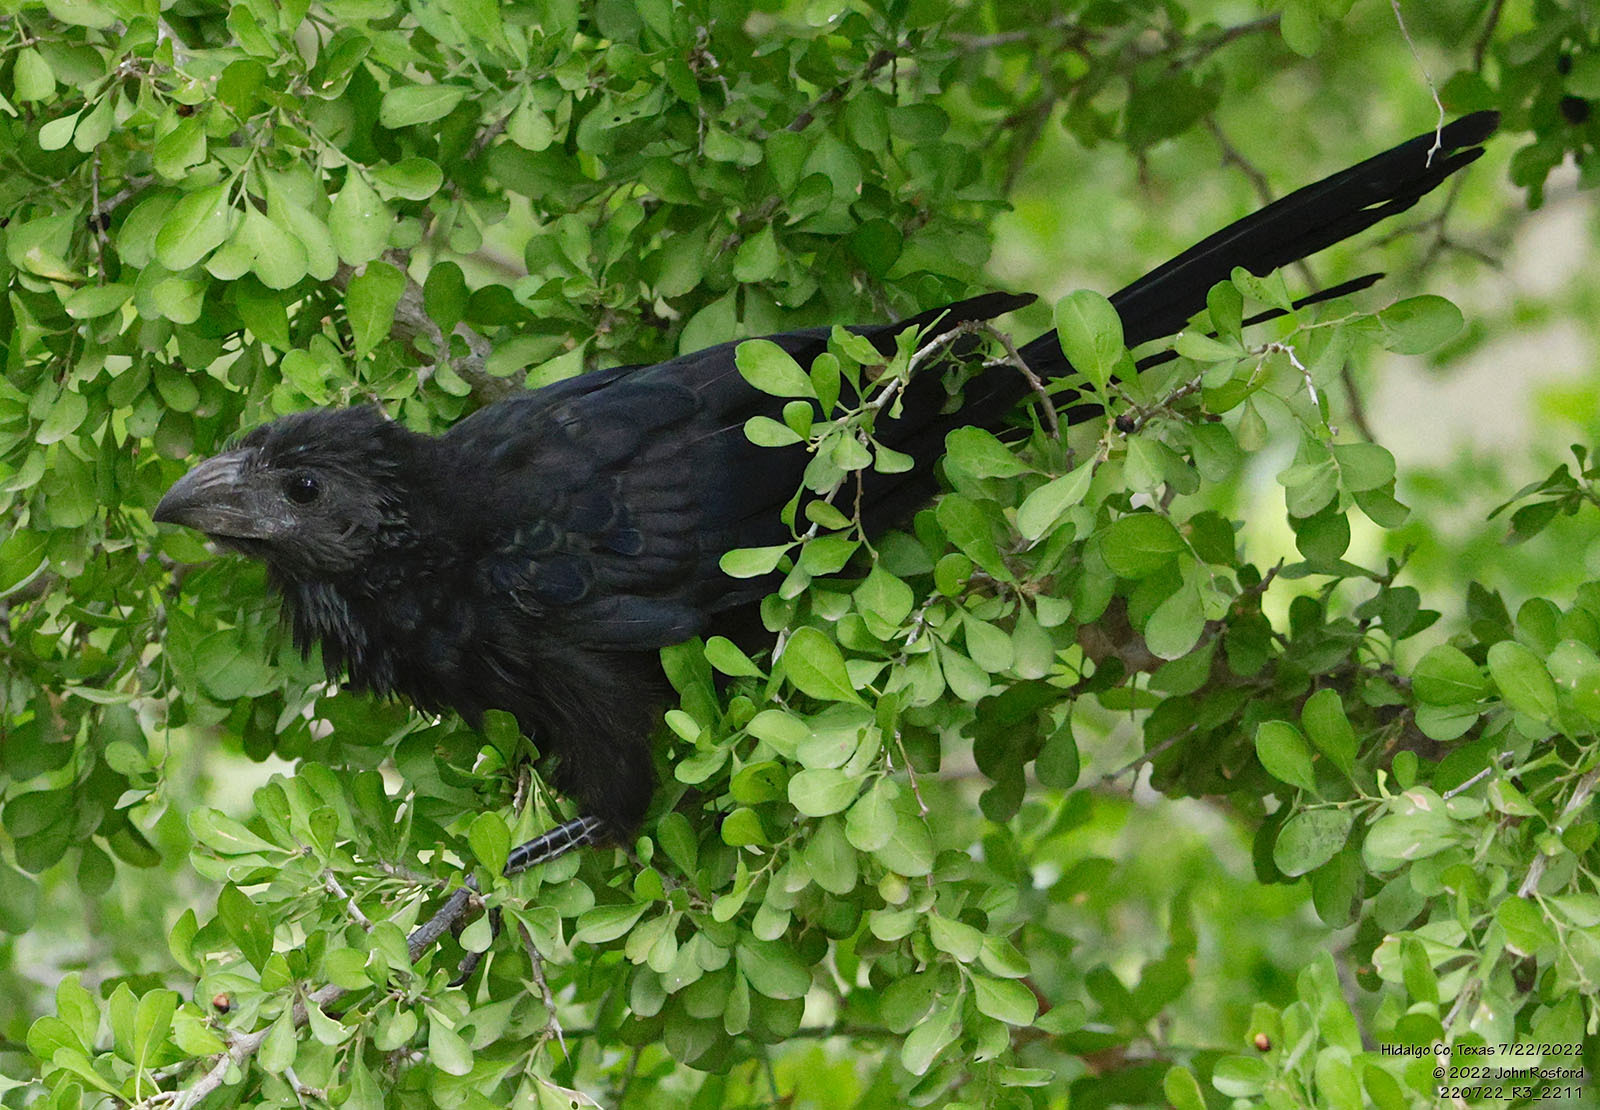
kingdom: Animalia
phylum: Chordata
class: Aves
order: Cuculiformes
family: Cuculidae
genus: Crotophaga
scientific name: Crotophaga sulcirostris
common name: Groove-billed ani
